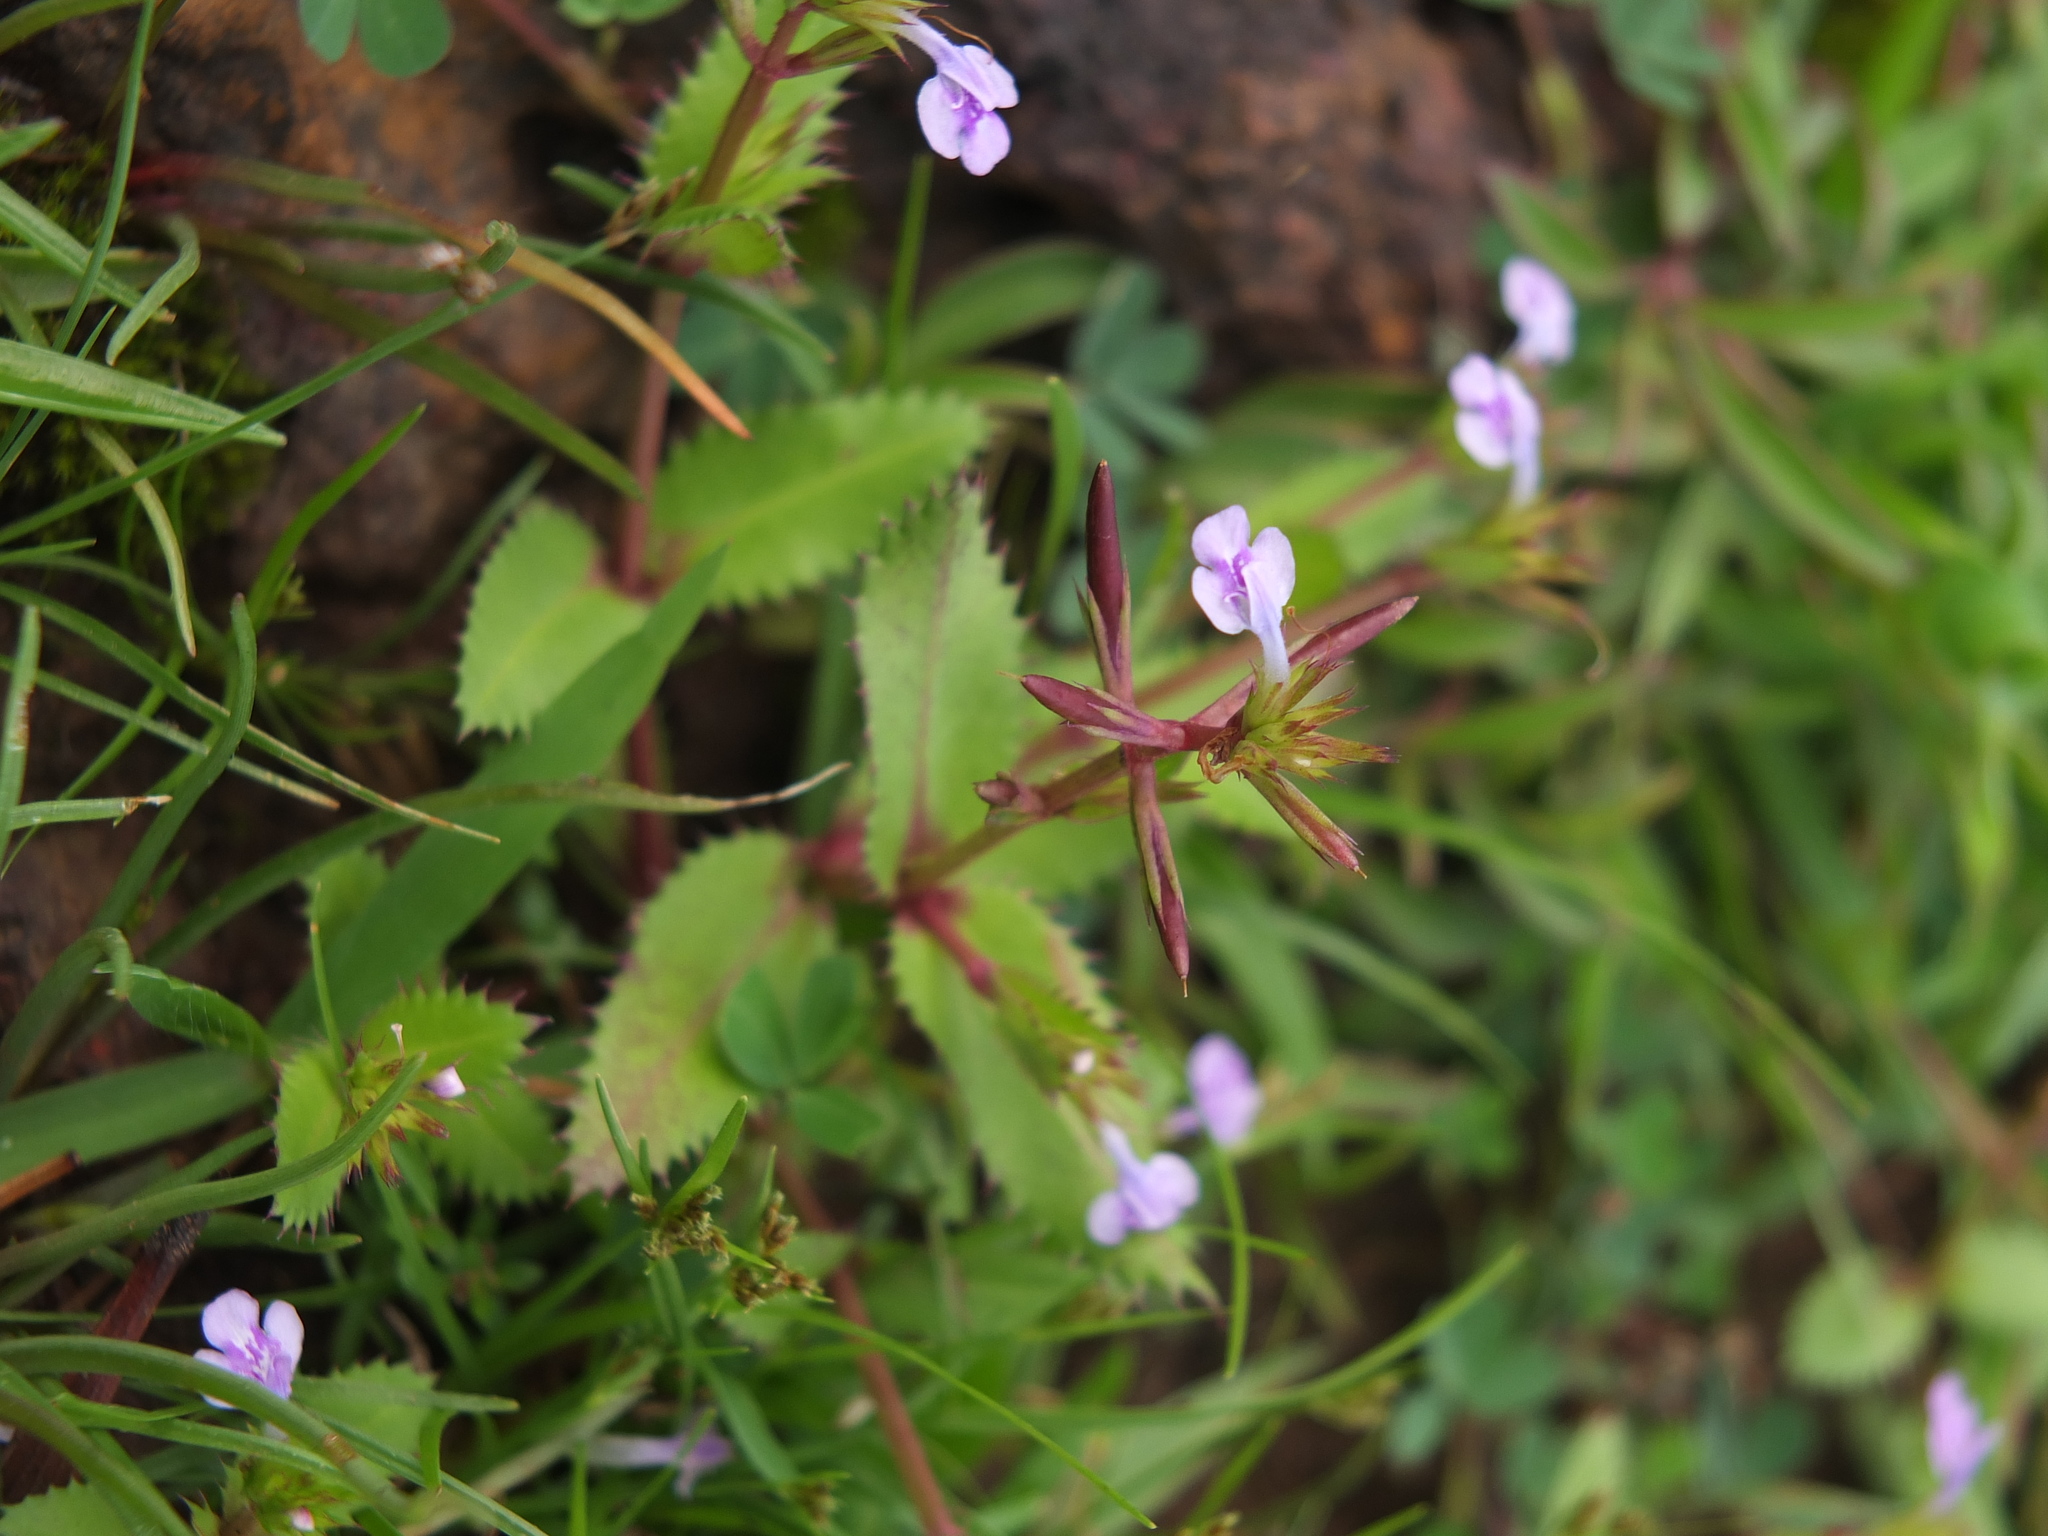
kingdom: Plantae
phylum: Tracheophyta
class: Magnoliopsida
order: Lamiales
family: Linderniaceae
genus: Bonnaya
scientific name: Bonnaya ciliata
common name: Hairy slitwort
